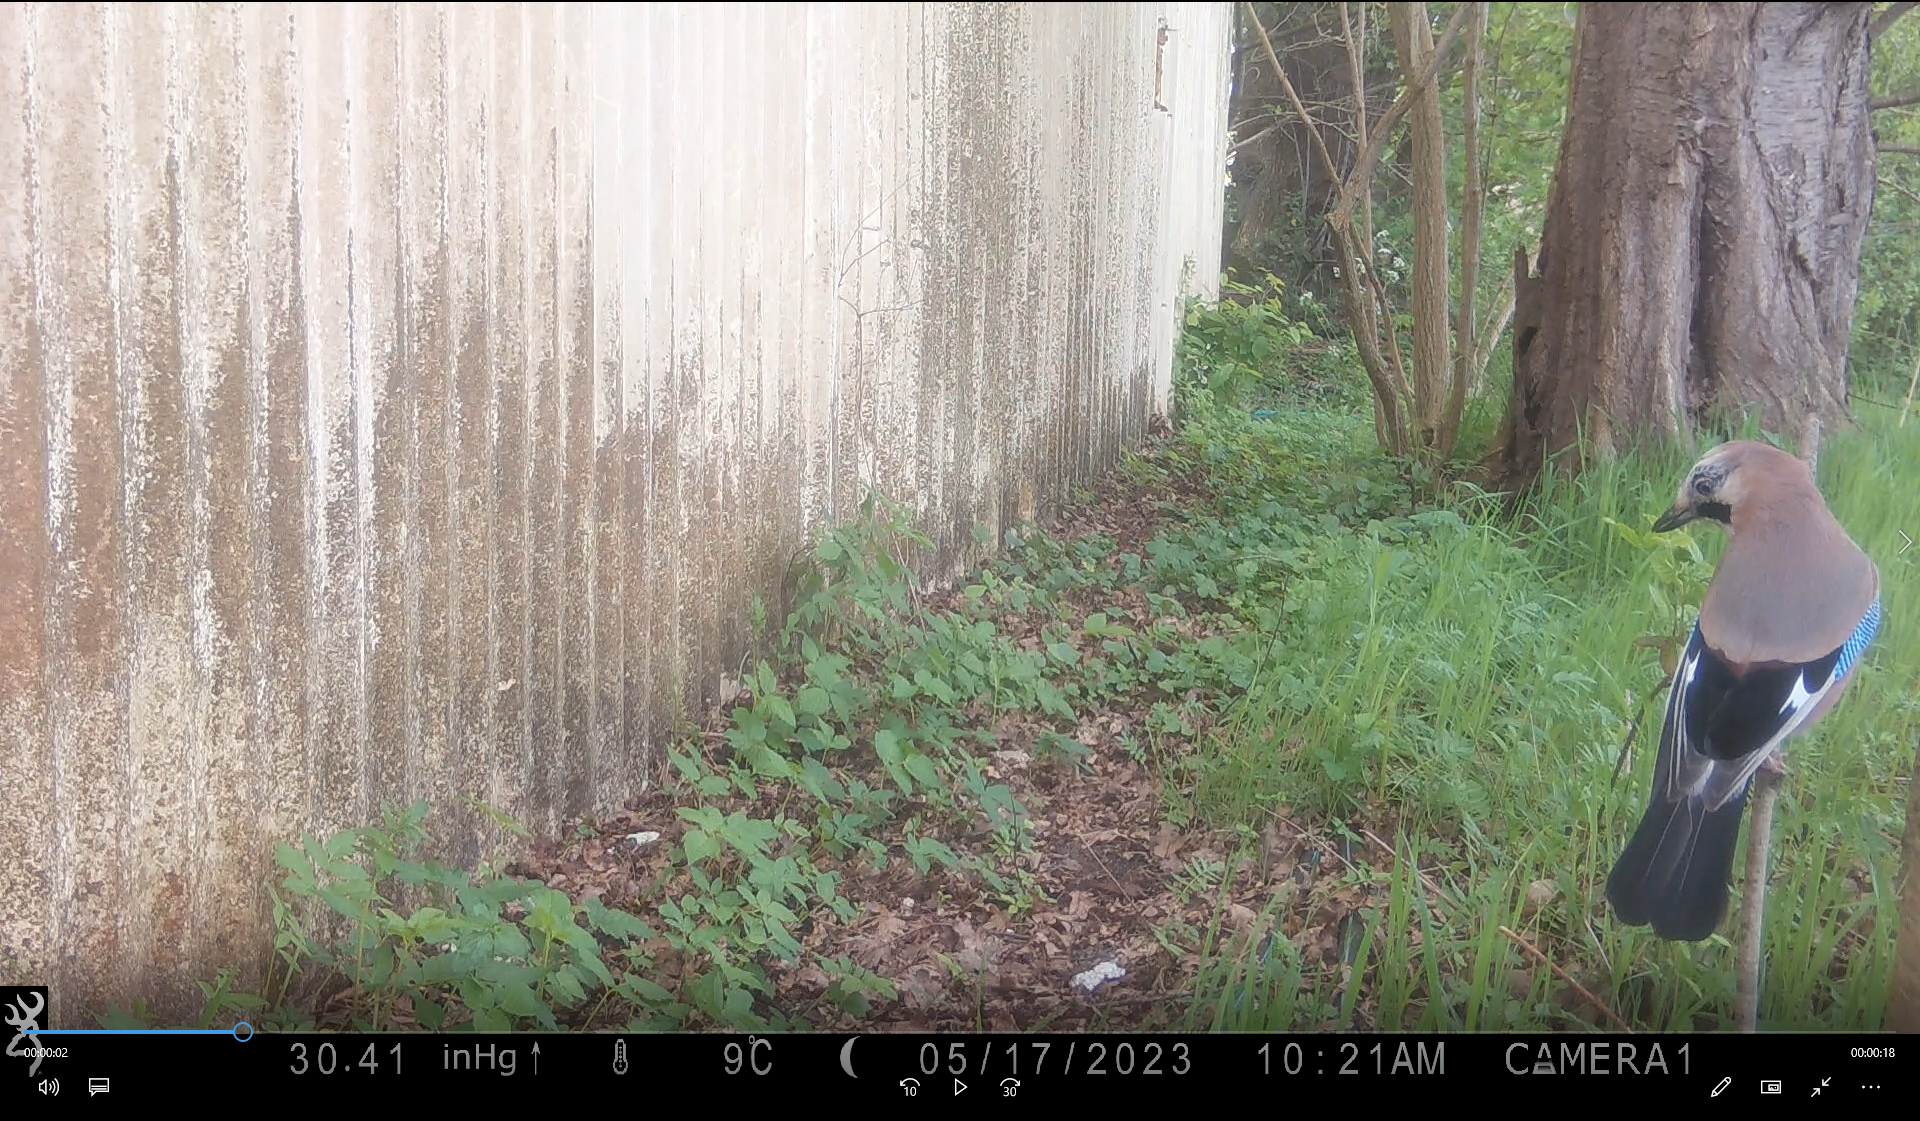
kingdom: Animalia
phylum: Chordata
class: Aves
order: Passeriformes
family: Corvidae
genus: Garrulus
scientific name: Garrulus glandarius
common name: Eurasian jay
